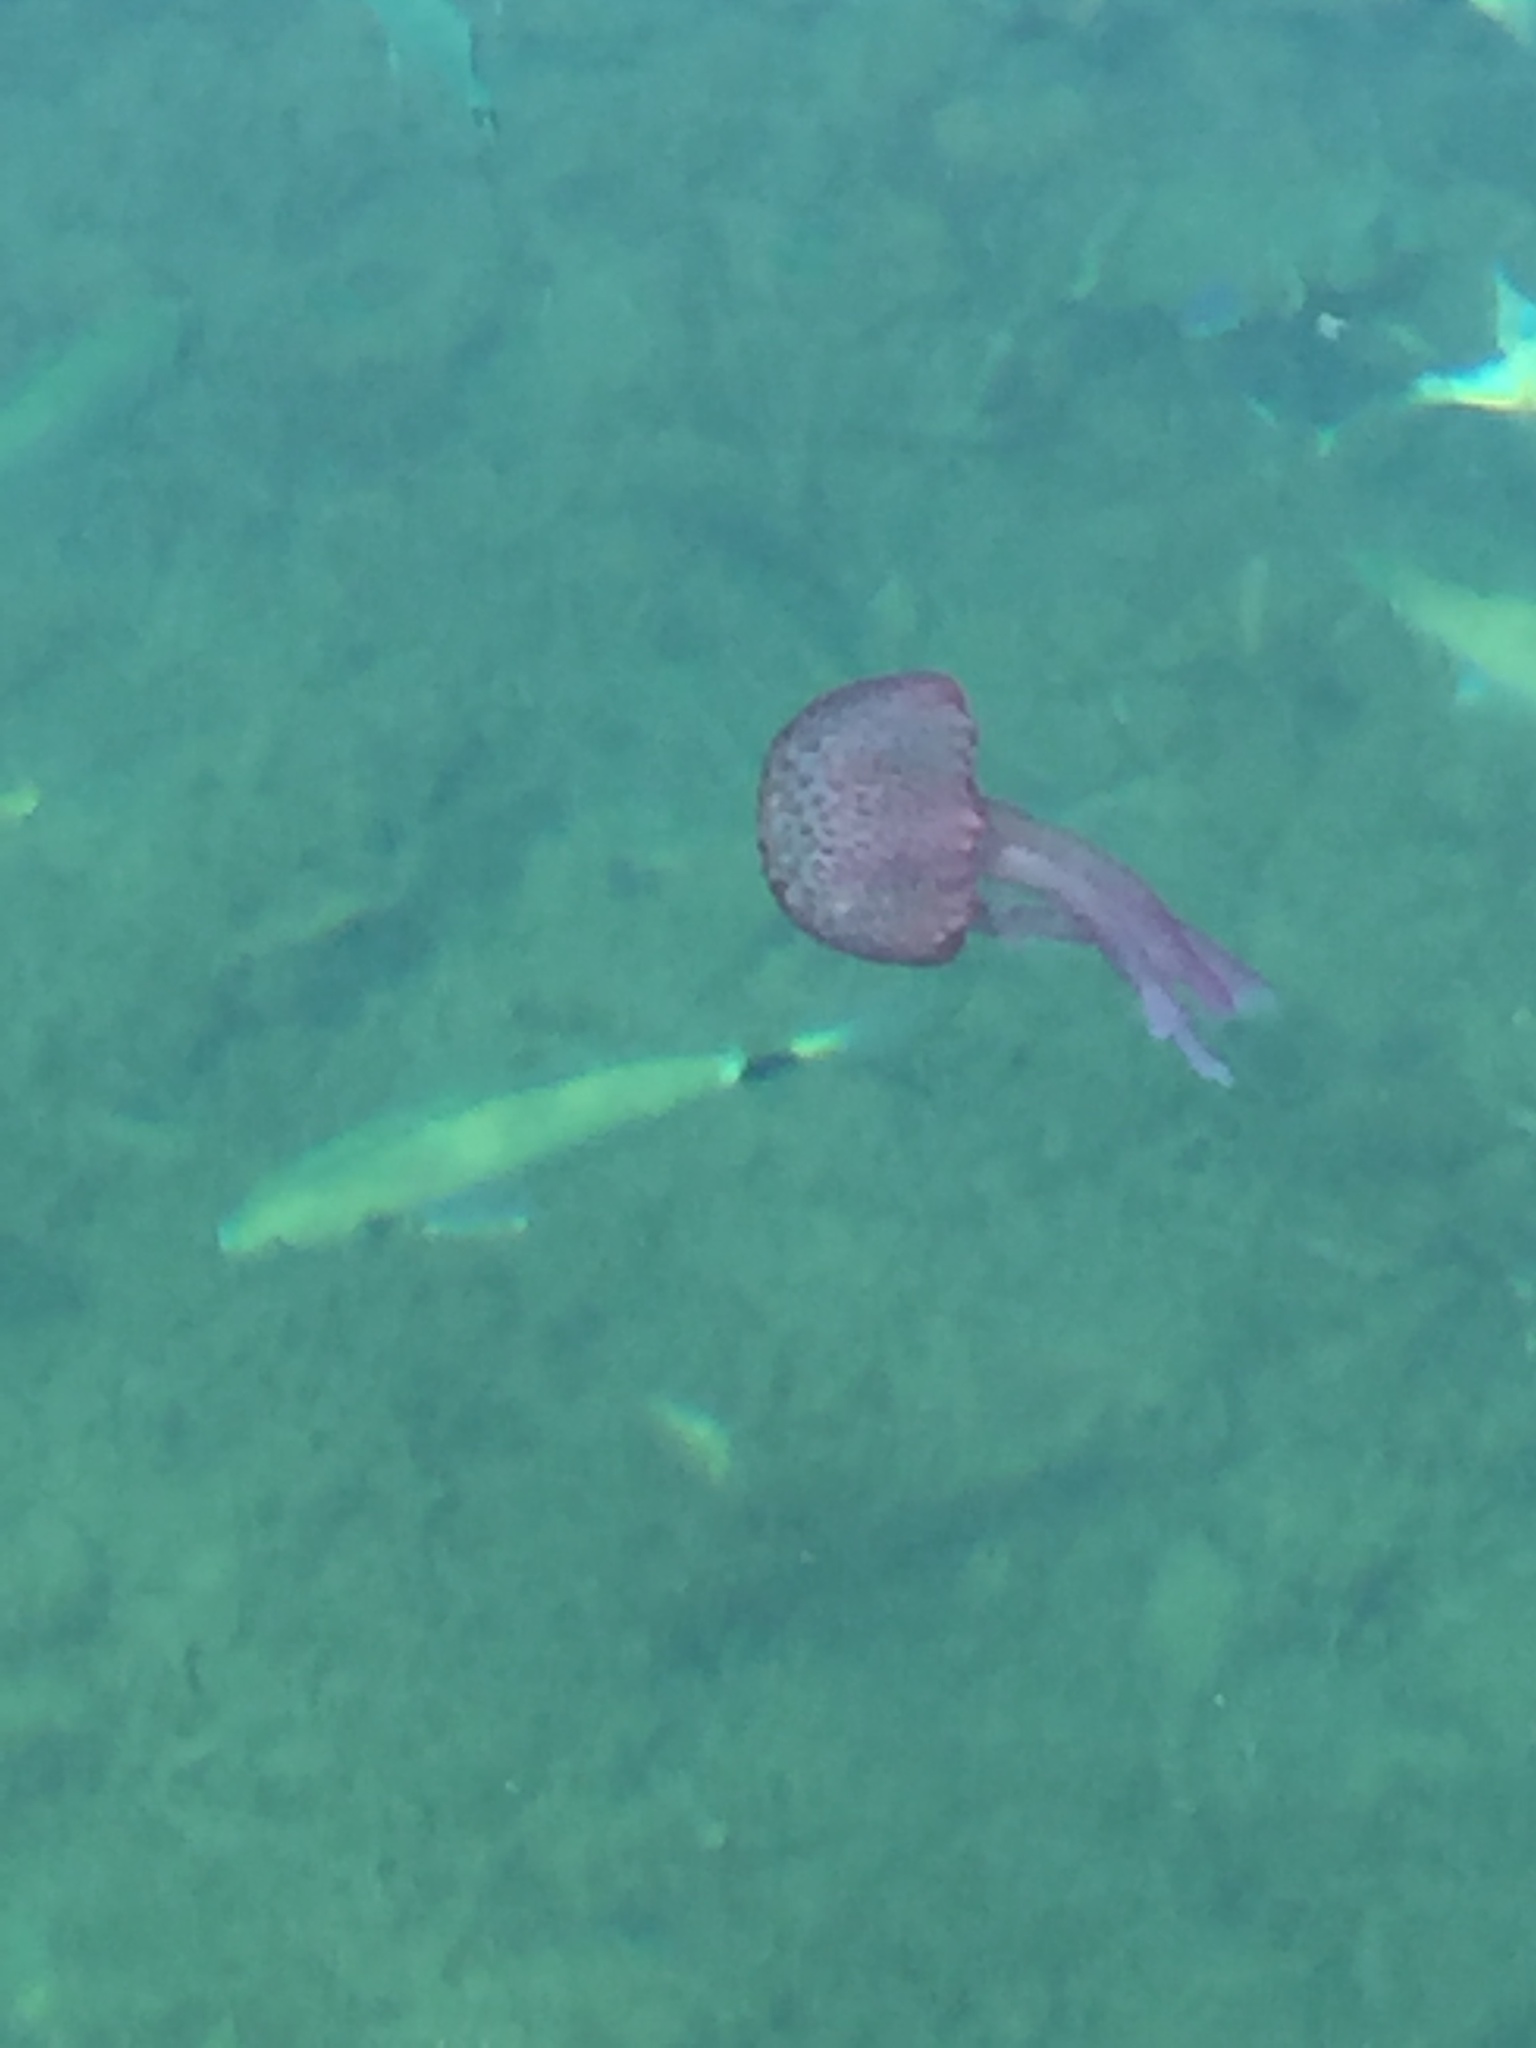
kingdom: Animalia
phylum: Cnidaria
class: Scyphozoa
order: Semaeostomeae
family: Pelagiidae
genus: Pelagia
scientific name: Pelagia noctiluca
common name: Mauve stinger
